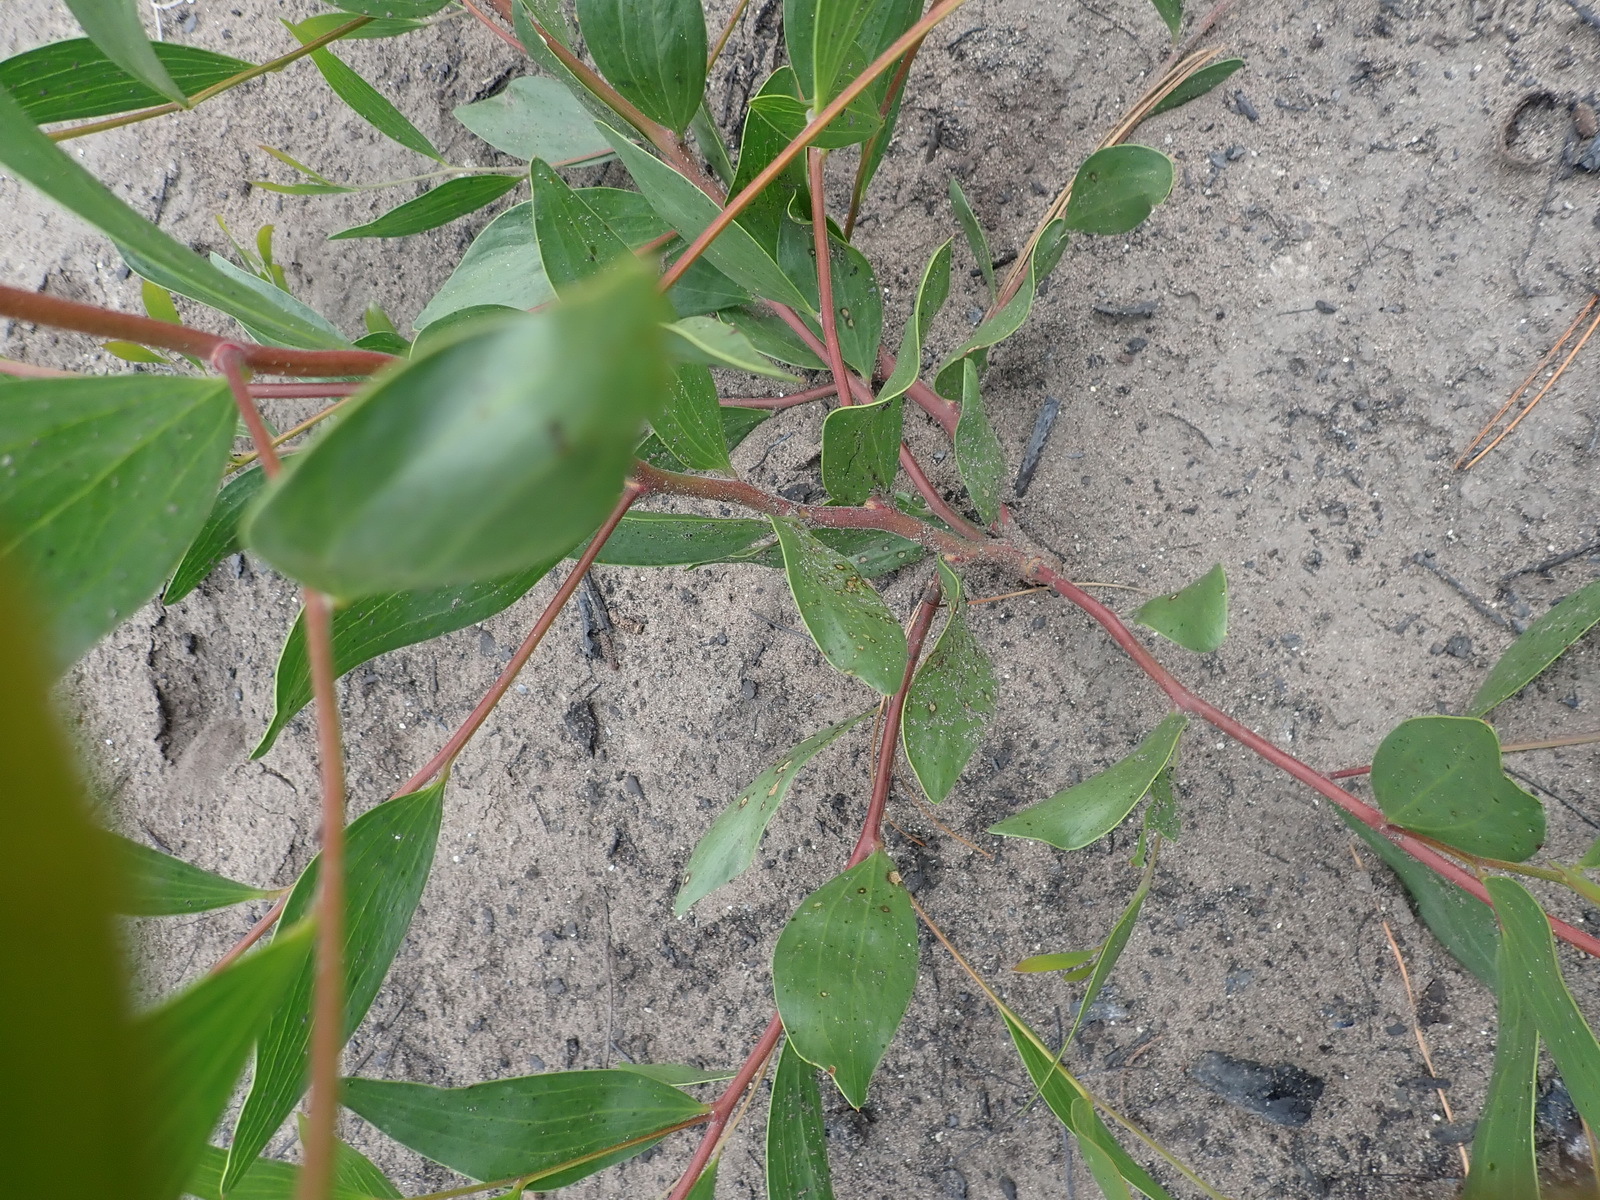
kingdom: Plantae
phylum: Tracheophyta
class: Magnoliopsida
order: Fabales
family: Fabaceae
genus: Acacia
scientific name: Acacia cyclops
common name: Coastal wattle
